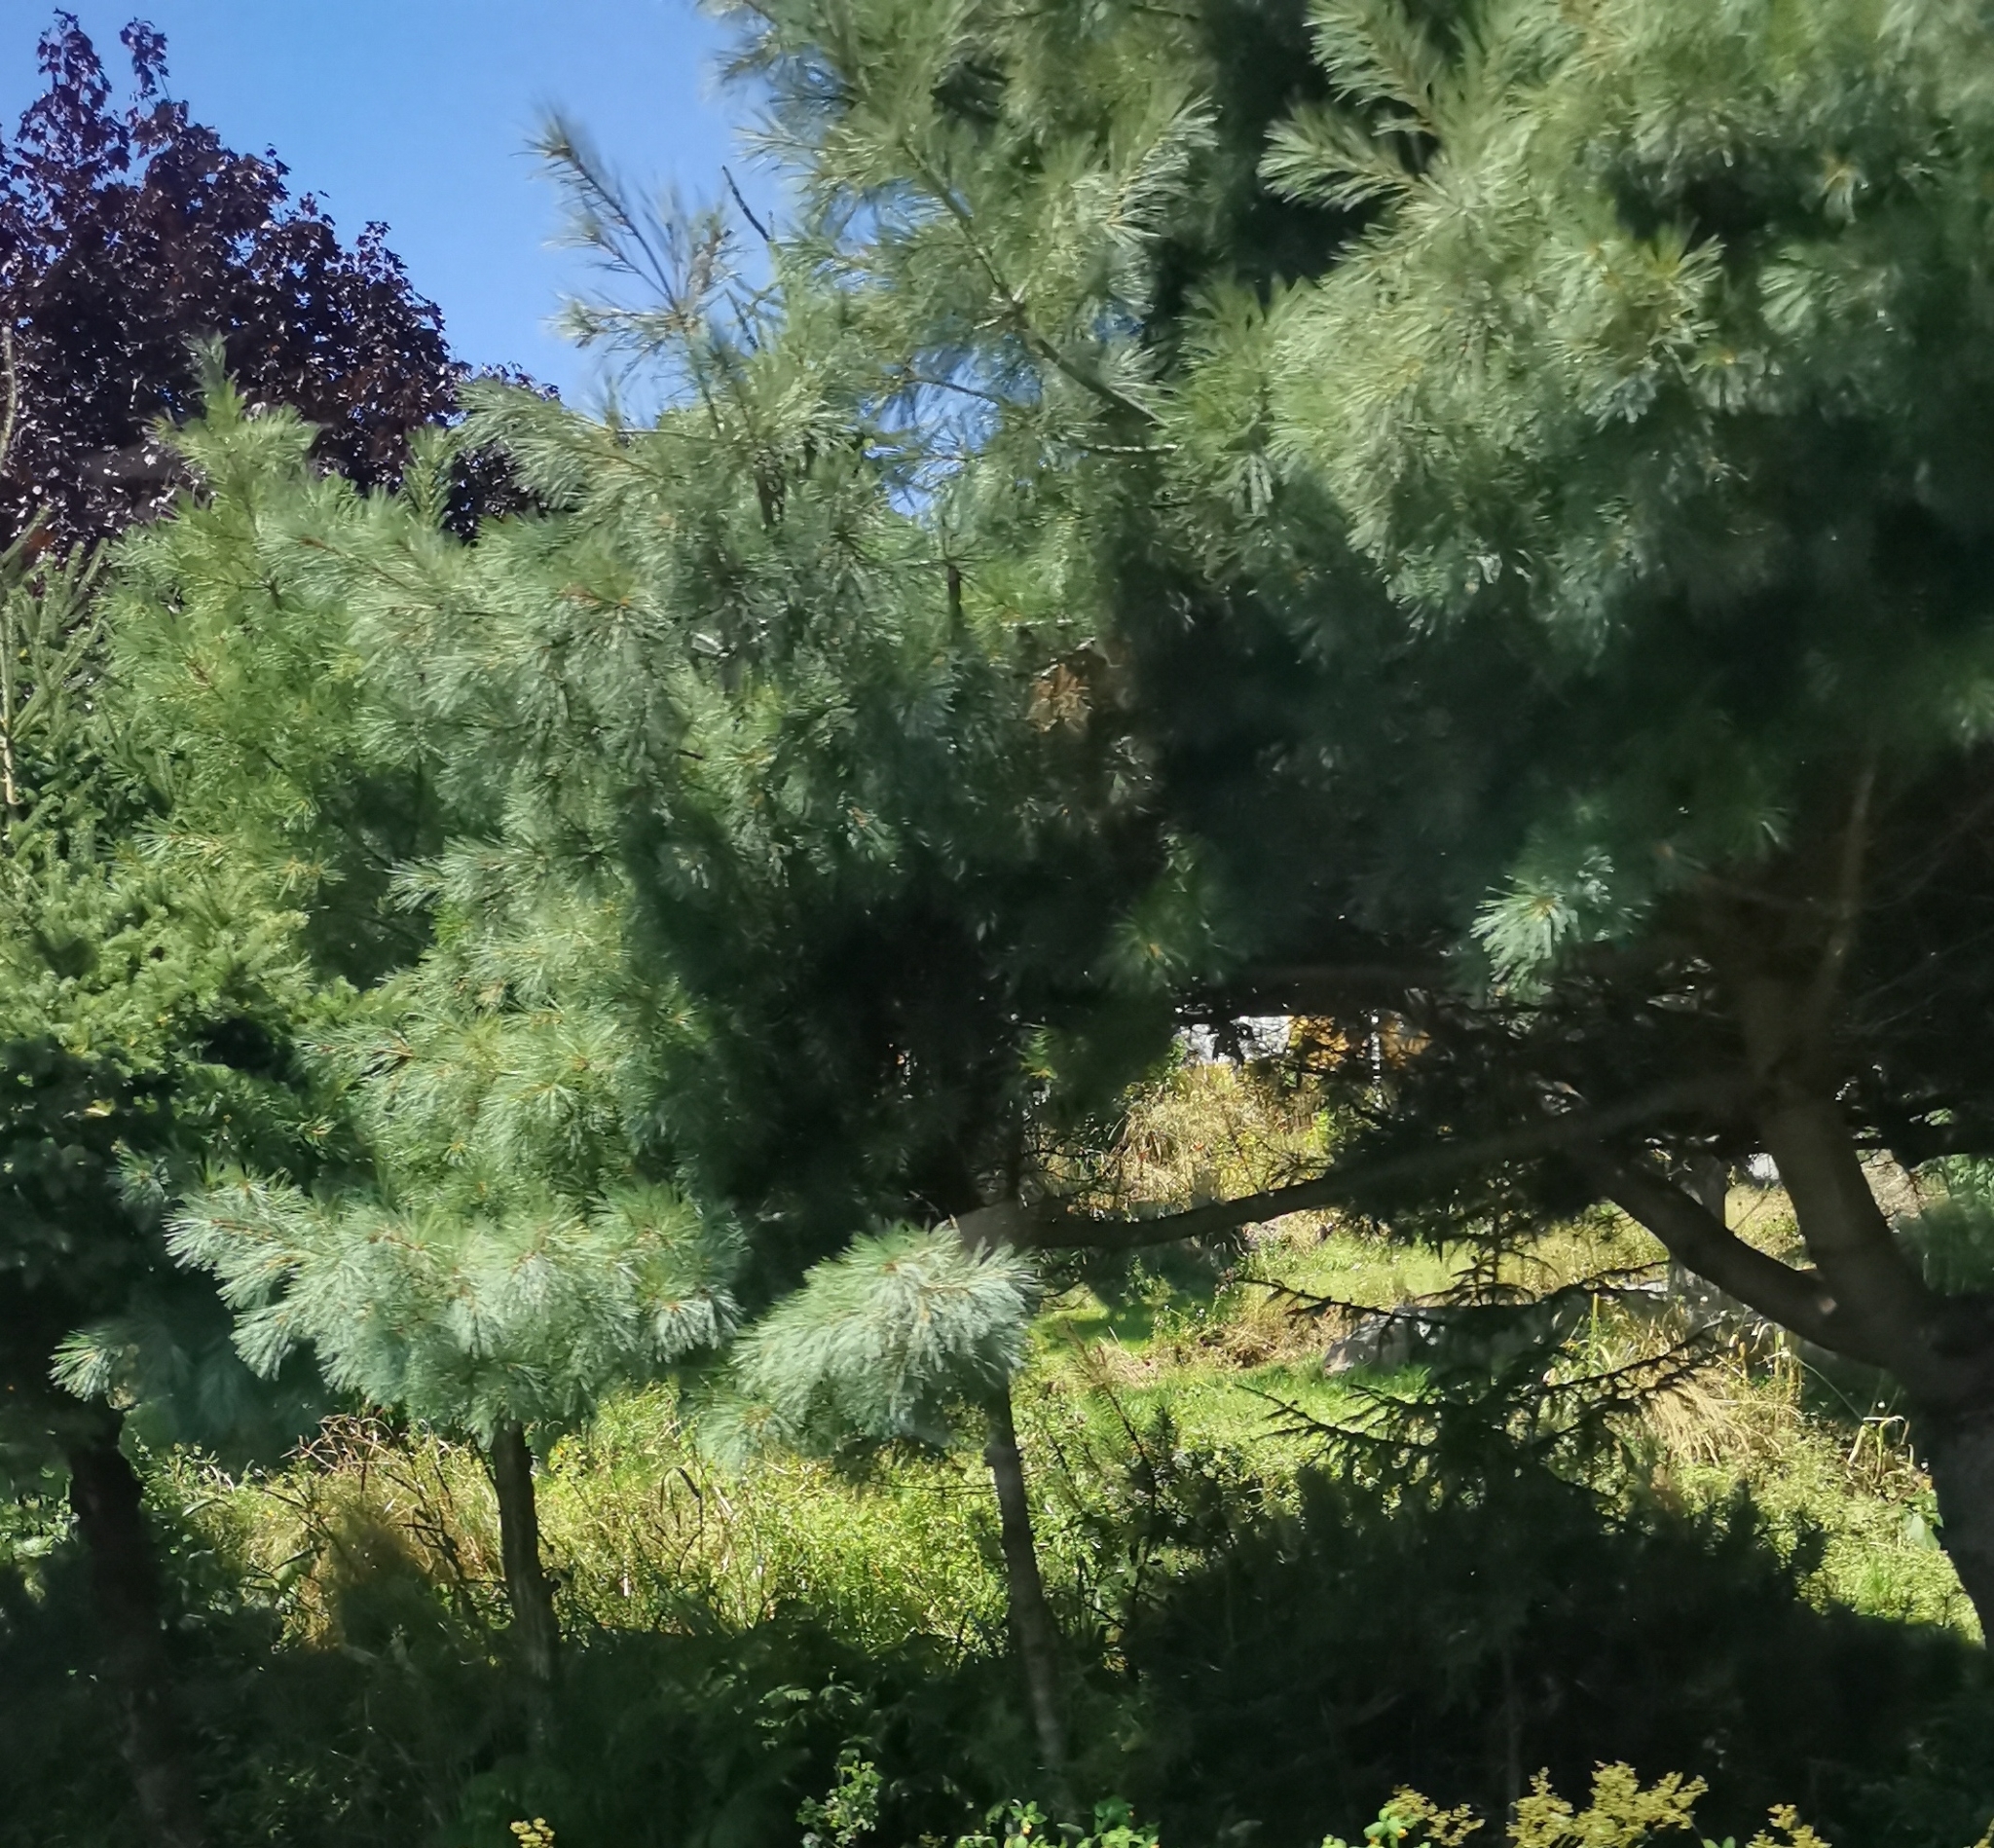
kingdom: Plantae
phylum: Tracheophyta
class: Pinopsida
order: Pinales
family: Pinaceae
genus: Pinus
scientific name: Pinus strobus
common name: Weymouth pine
